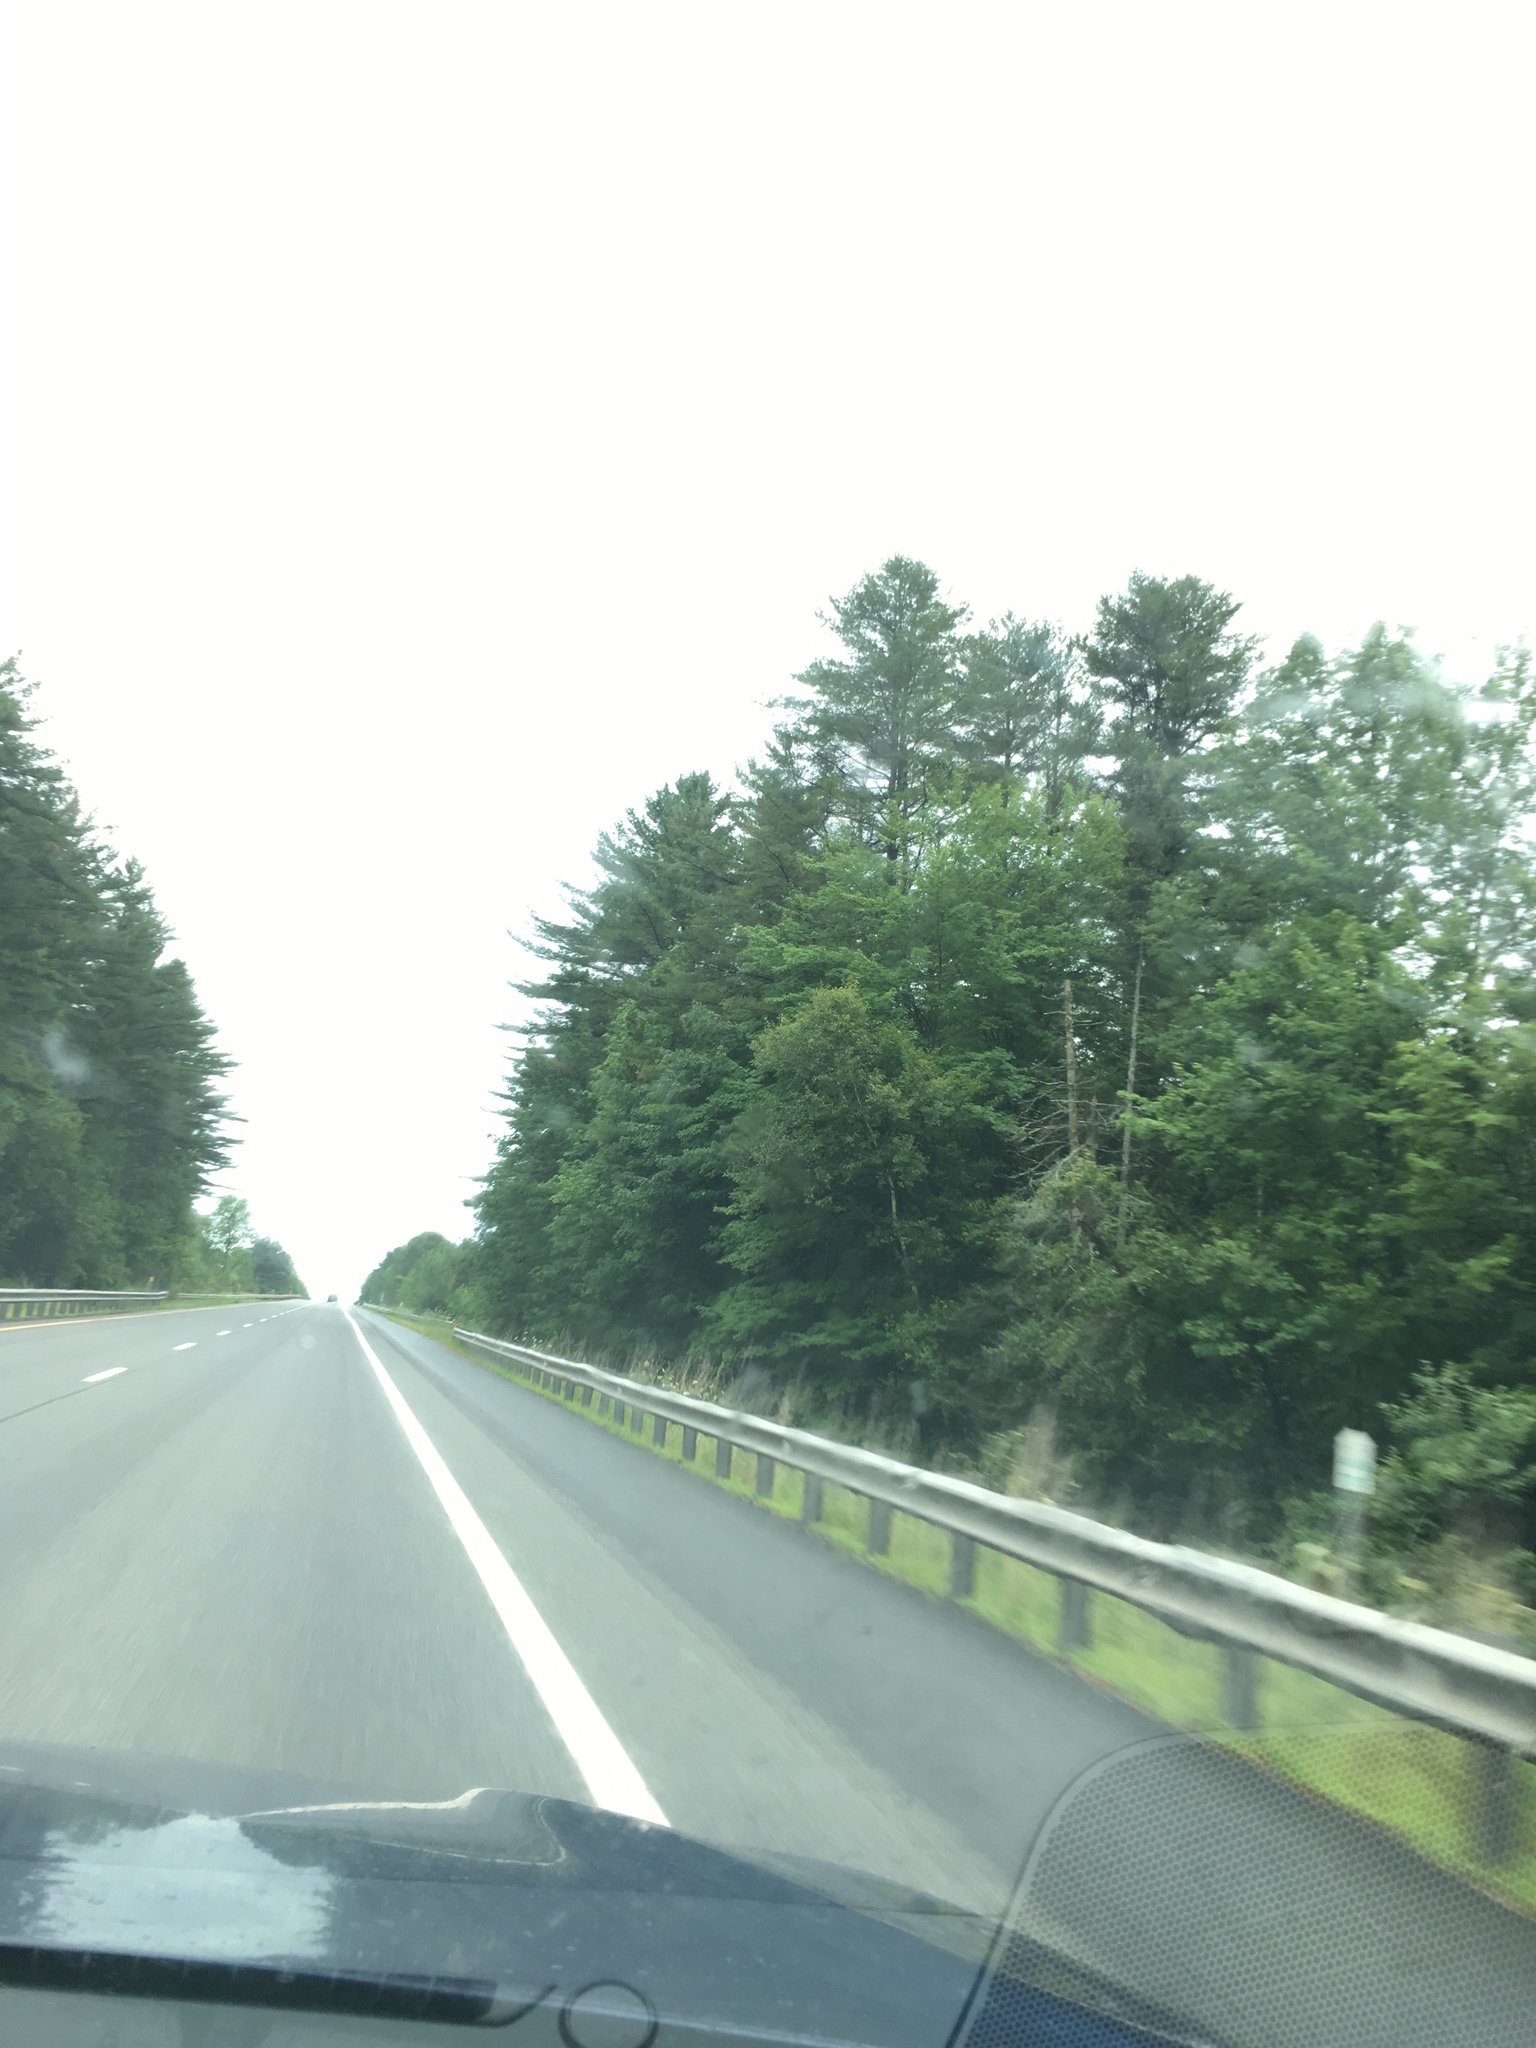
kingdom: Plantae
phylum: Tracheophyta
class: Pinopsida
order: Pinales
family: Pinaceae
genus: Pinus
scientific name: Pinus strobus
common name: Weymouth pine
